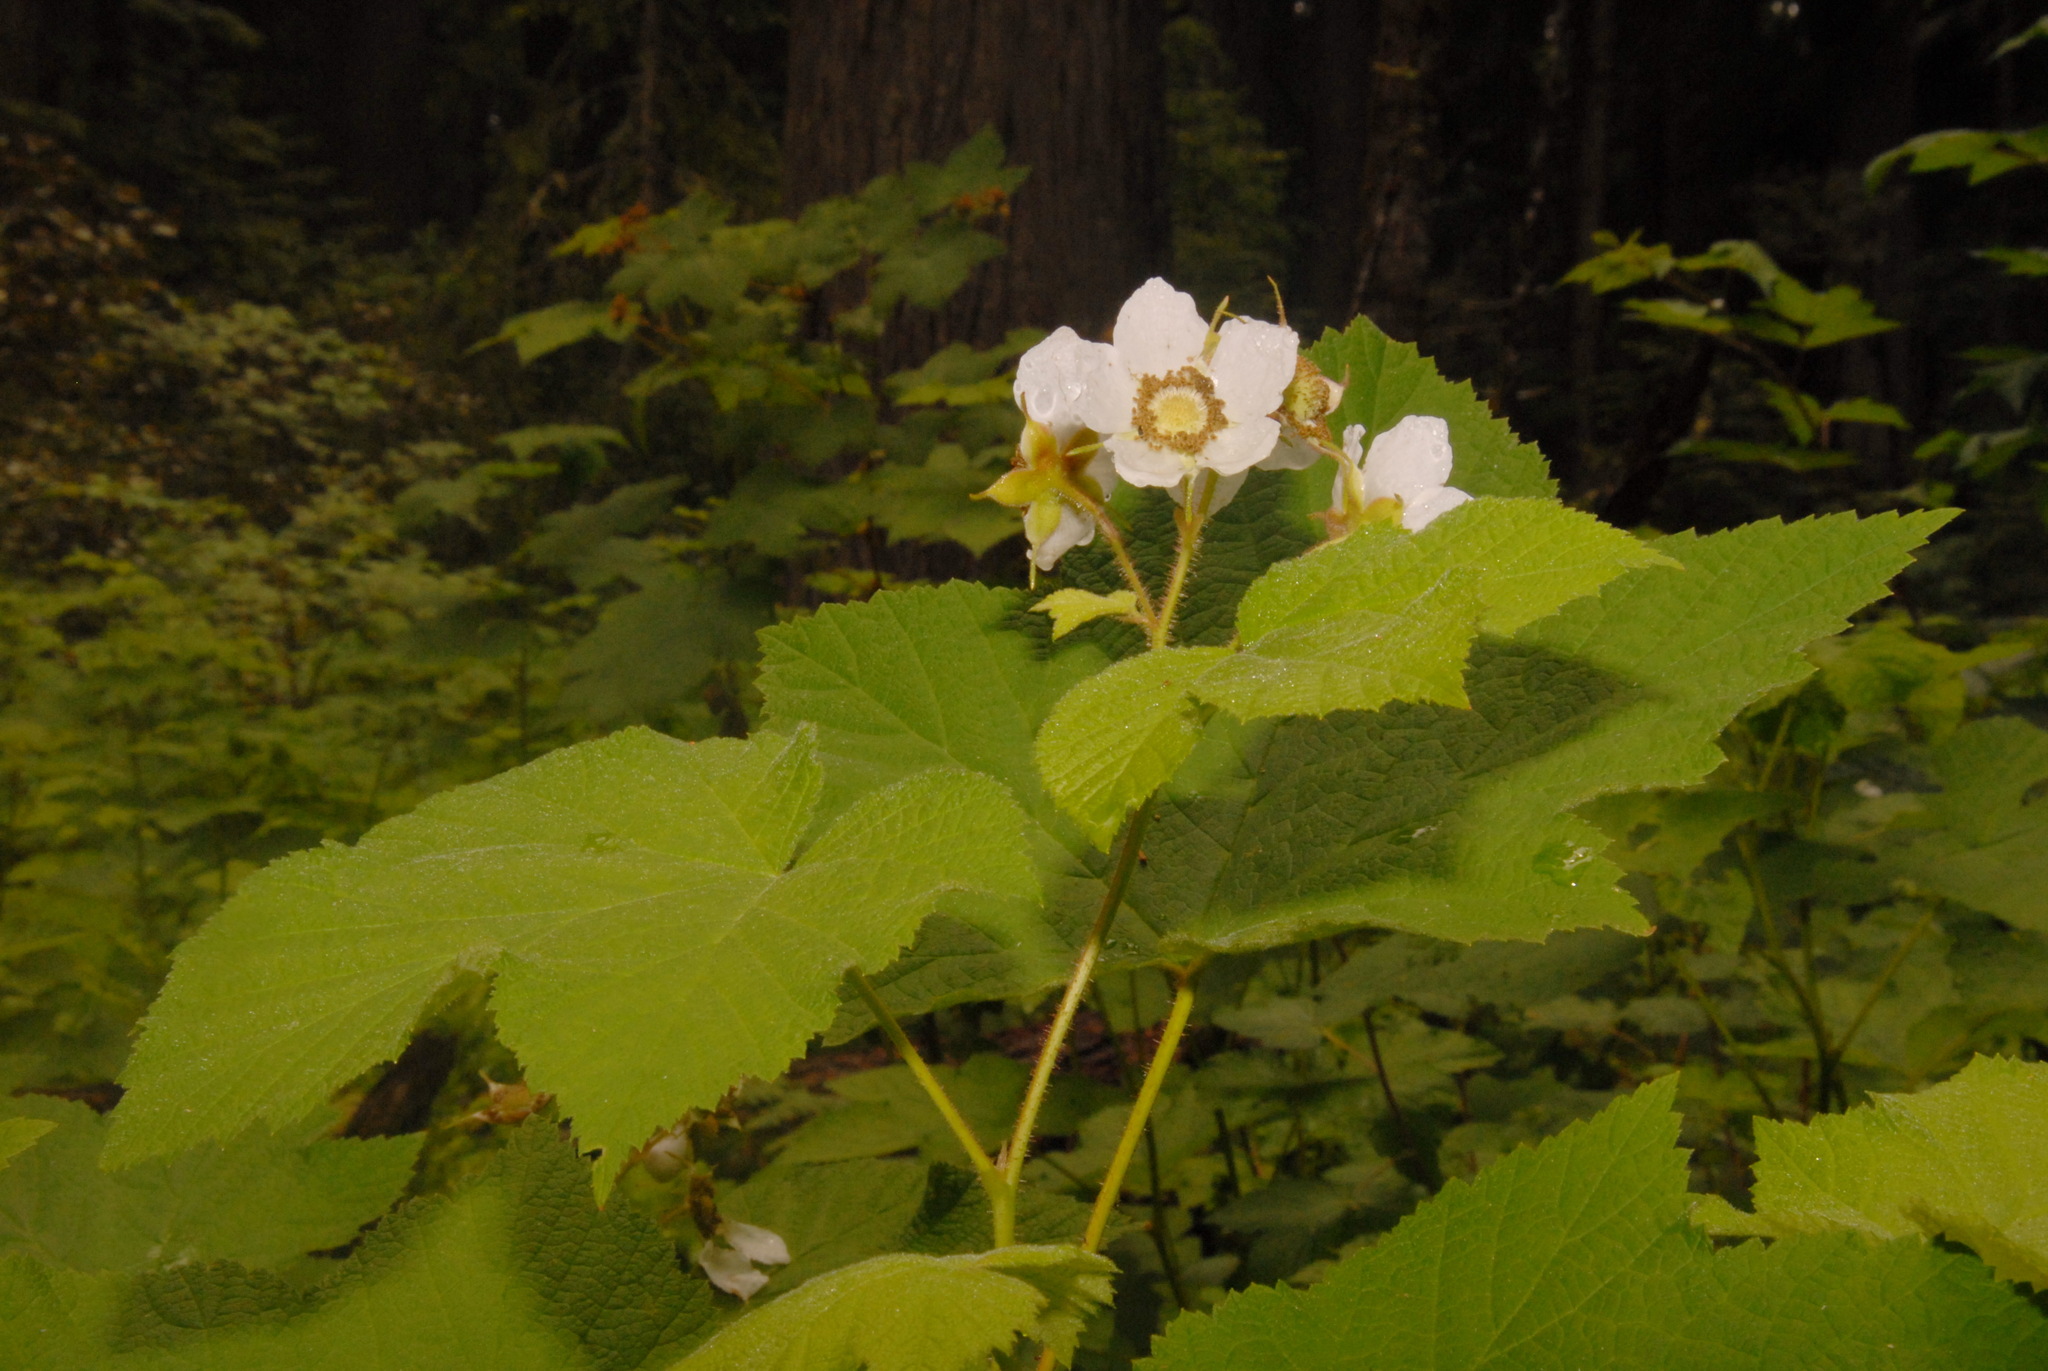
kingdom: Plantae
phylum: Tracheophyta
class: Magnoliopsida
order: Rosales
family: Rosaceae
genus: Rubus
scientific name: Rubus parviflorus
